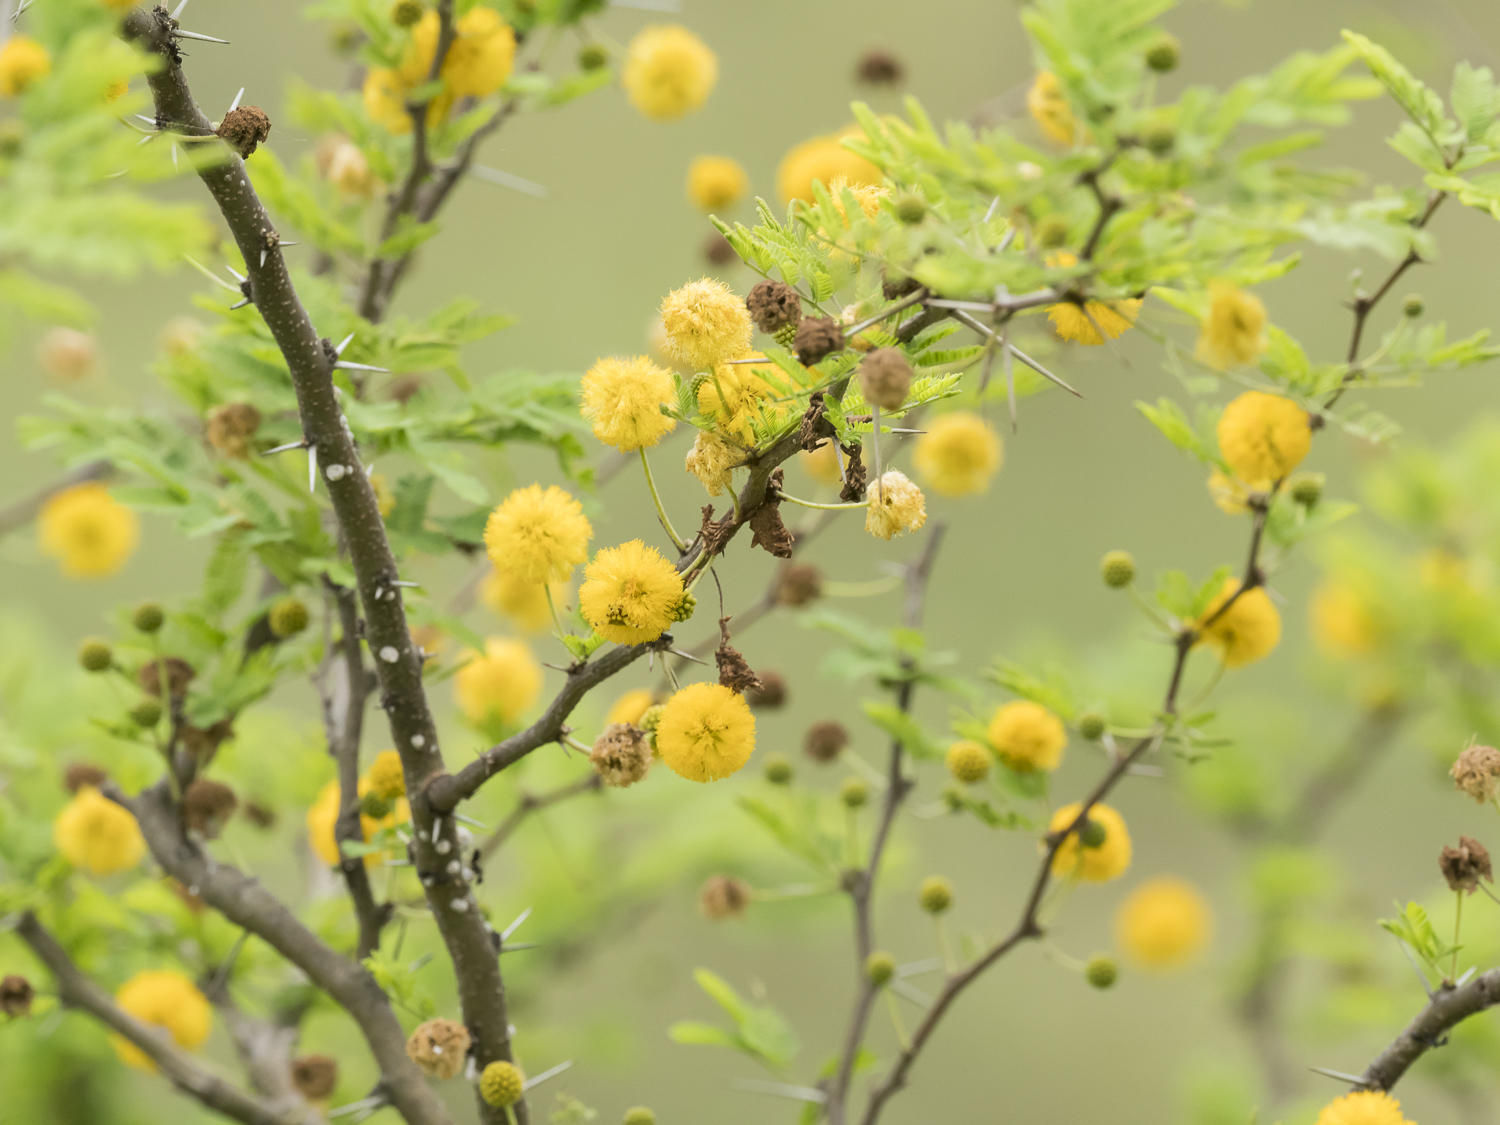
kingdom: Plantae
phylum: Tracheophyta
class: Magnoliopsida
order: Fabales
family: Fabaceae
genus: Vachellia
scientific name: Vachellia farnesiana
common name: Sweet acacia
